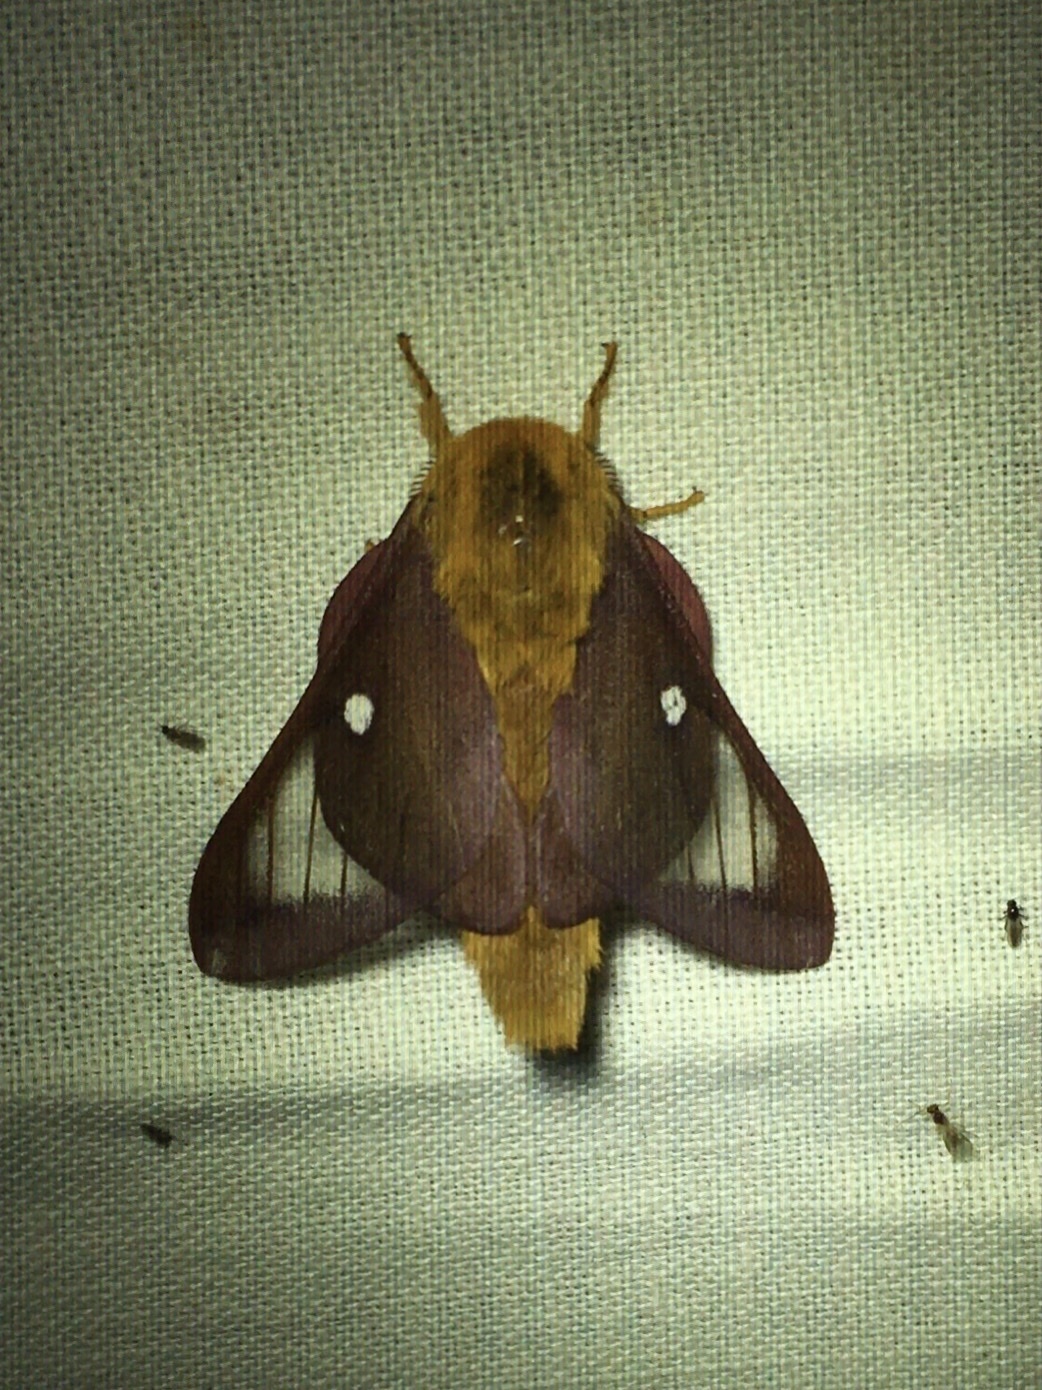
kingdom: Animalia
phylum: Arthropoda
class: Insecta
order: Lepidoptera
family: Saturniidae
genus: Anisota
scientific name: Anisota virginiensis
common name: Pink striped oakworm moth
